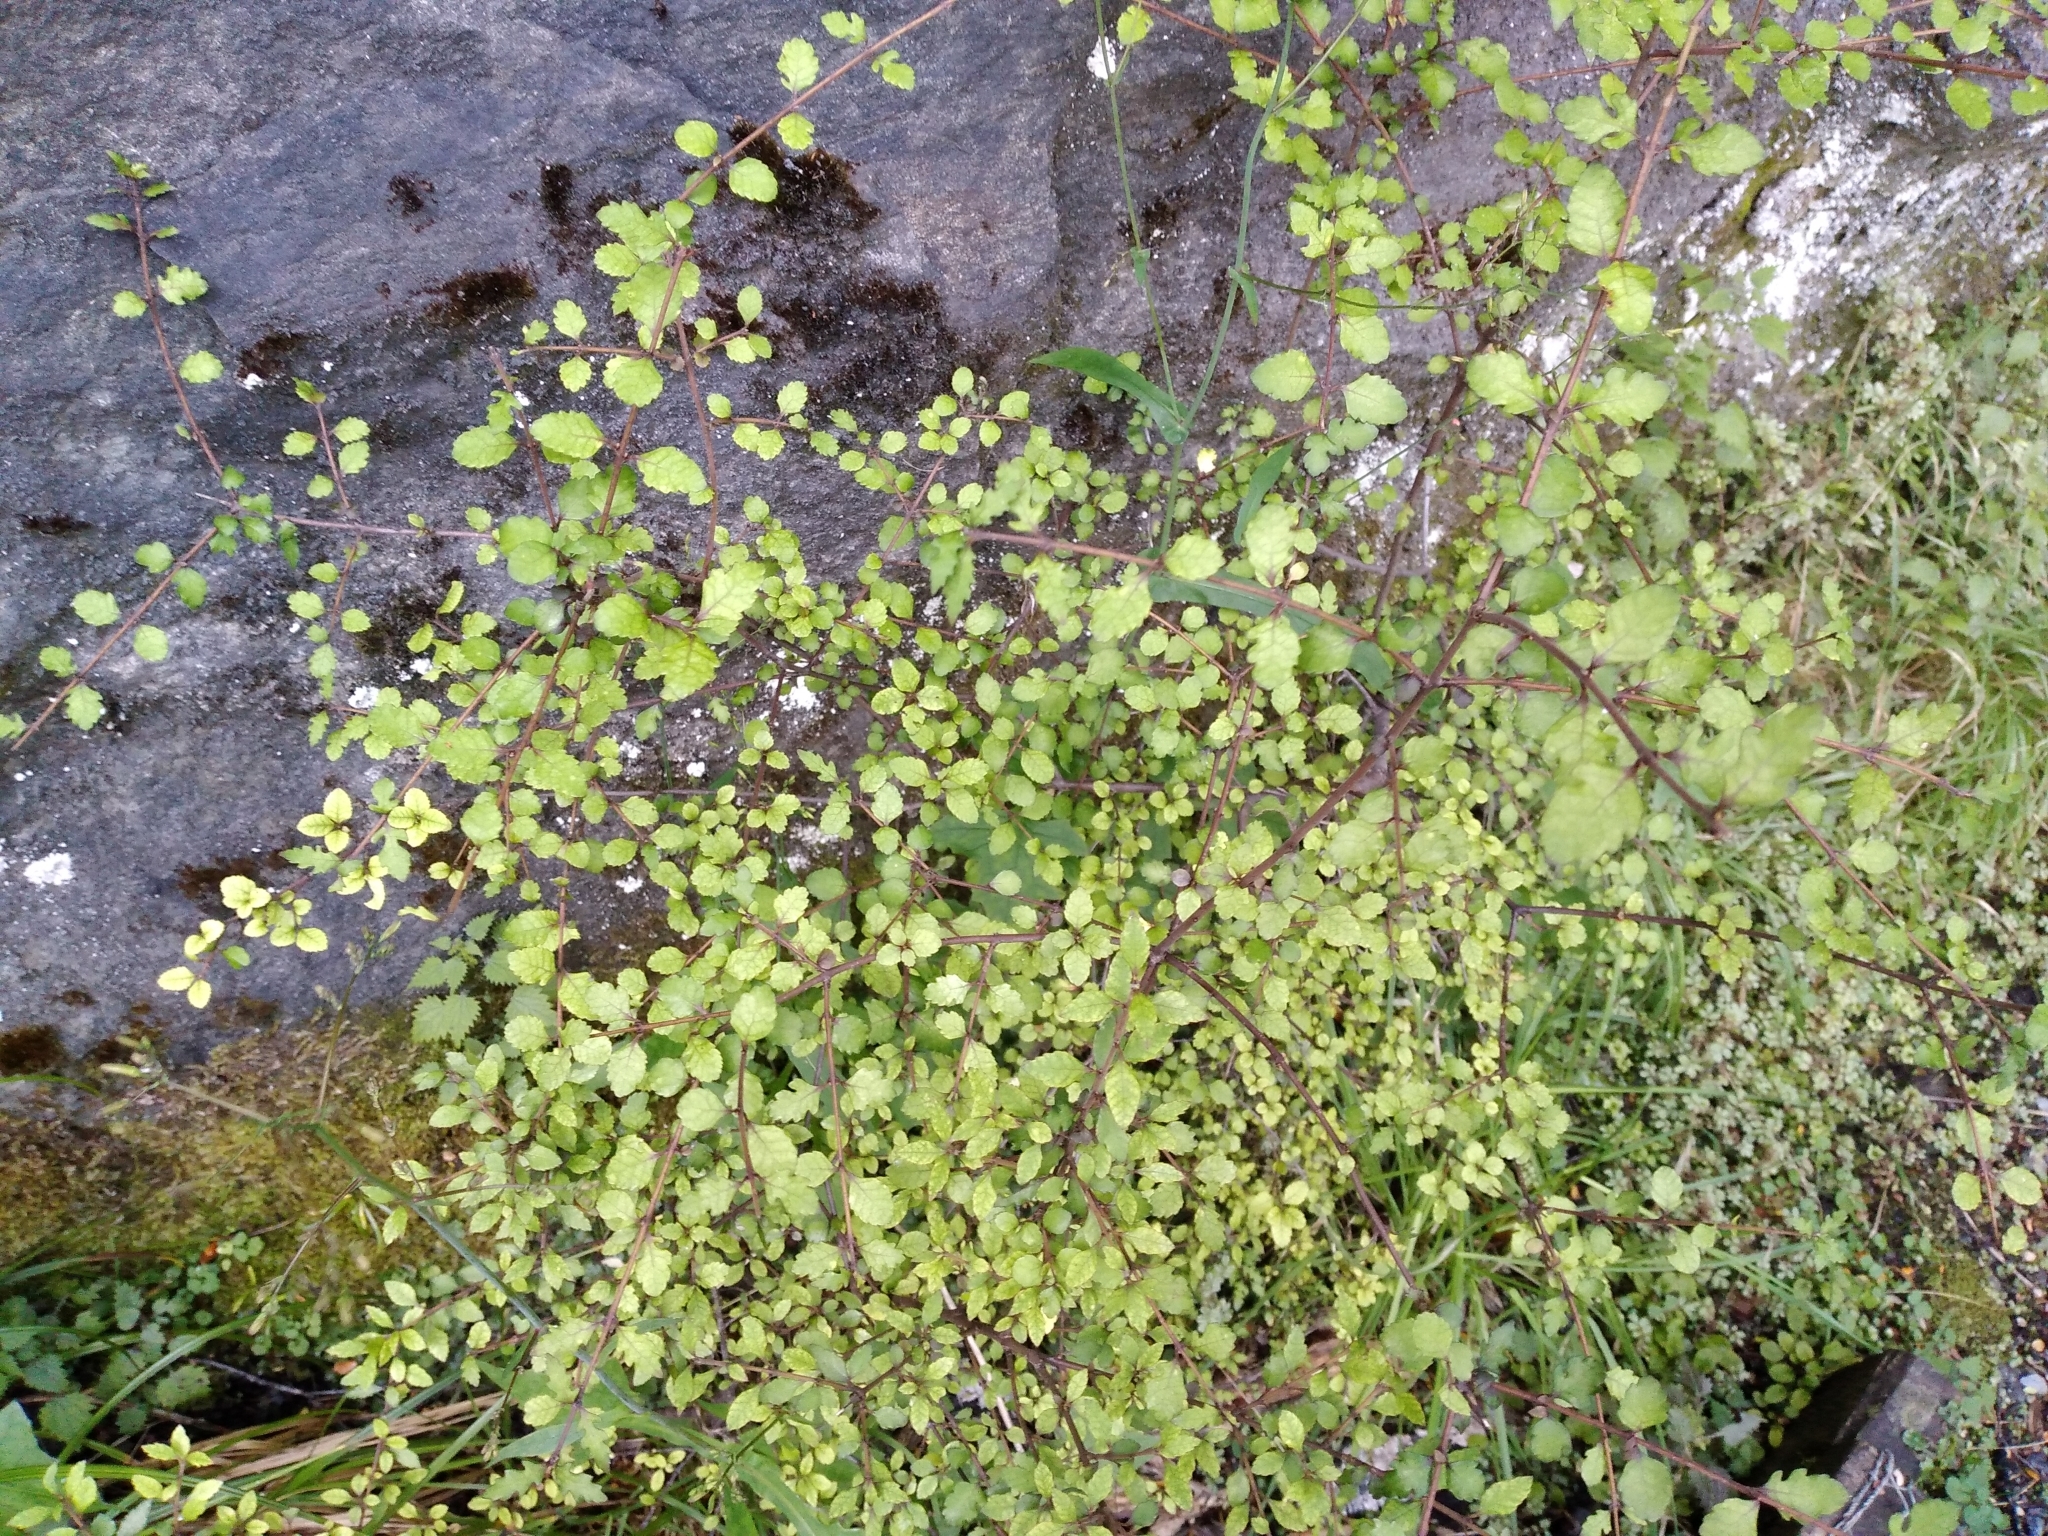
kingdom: Plantae
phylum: Tracheophyta
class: Magnoliopsida
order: Oxalidales
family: Elaeocarpaceae
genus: Aristotelia
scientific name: Aristotelia
